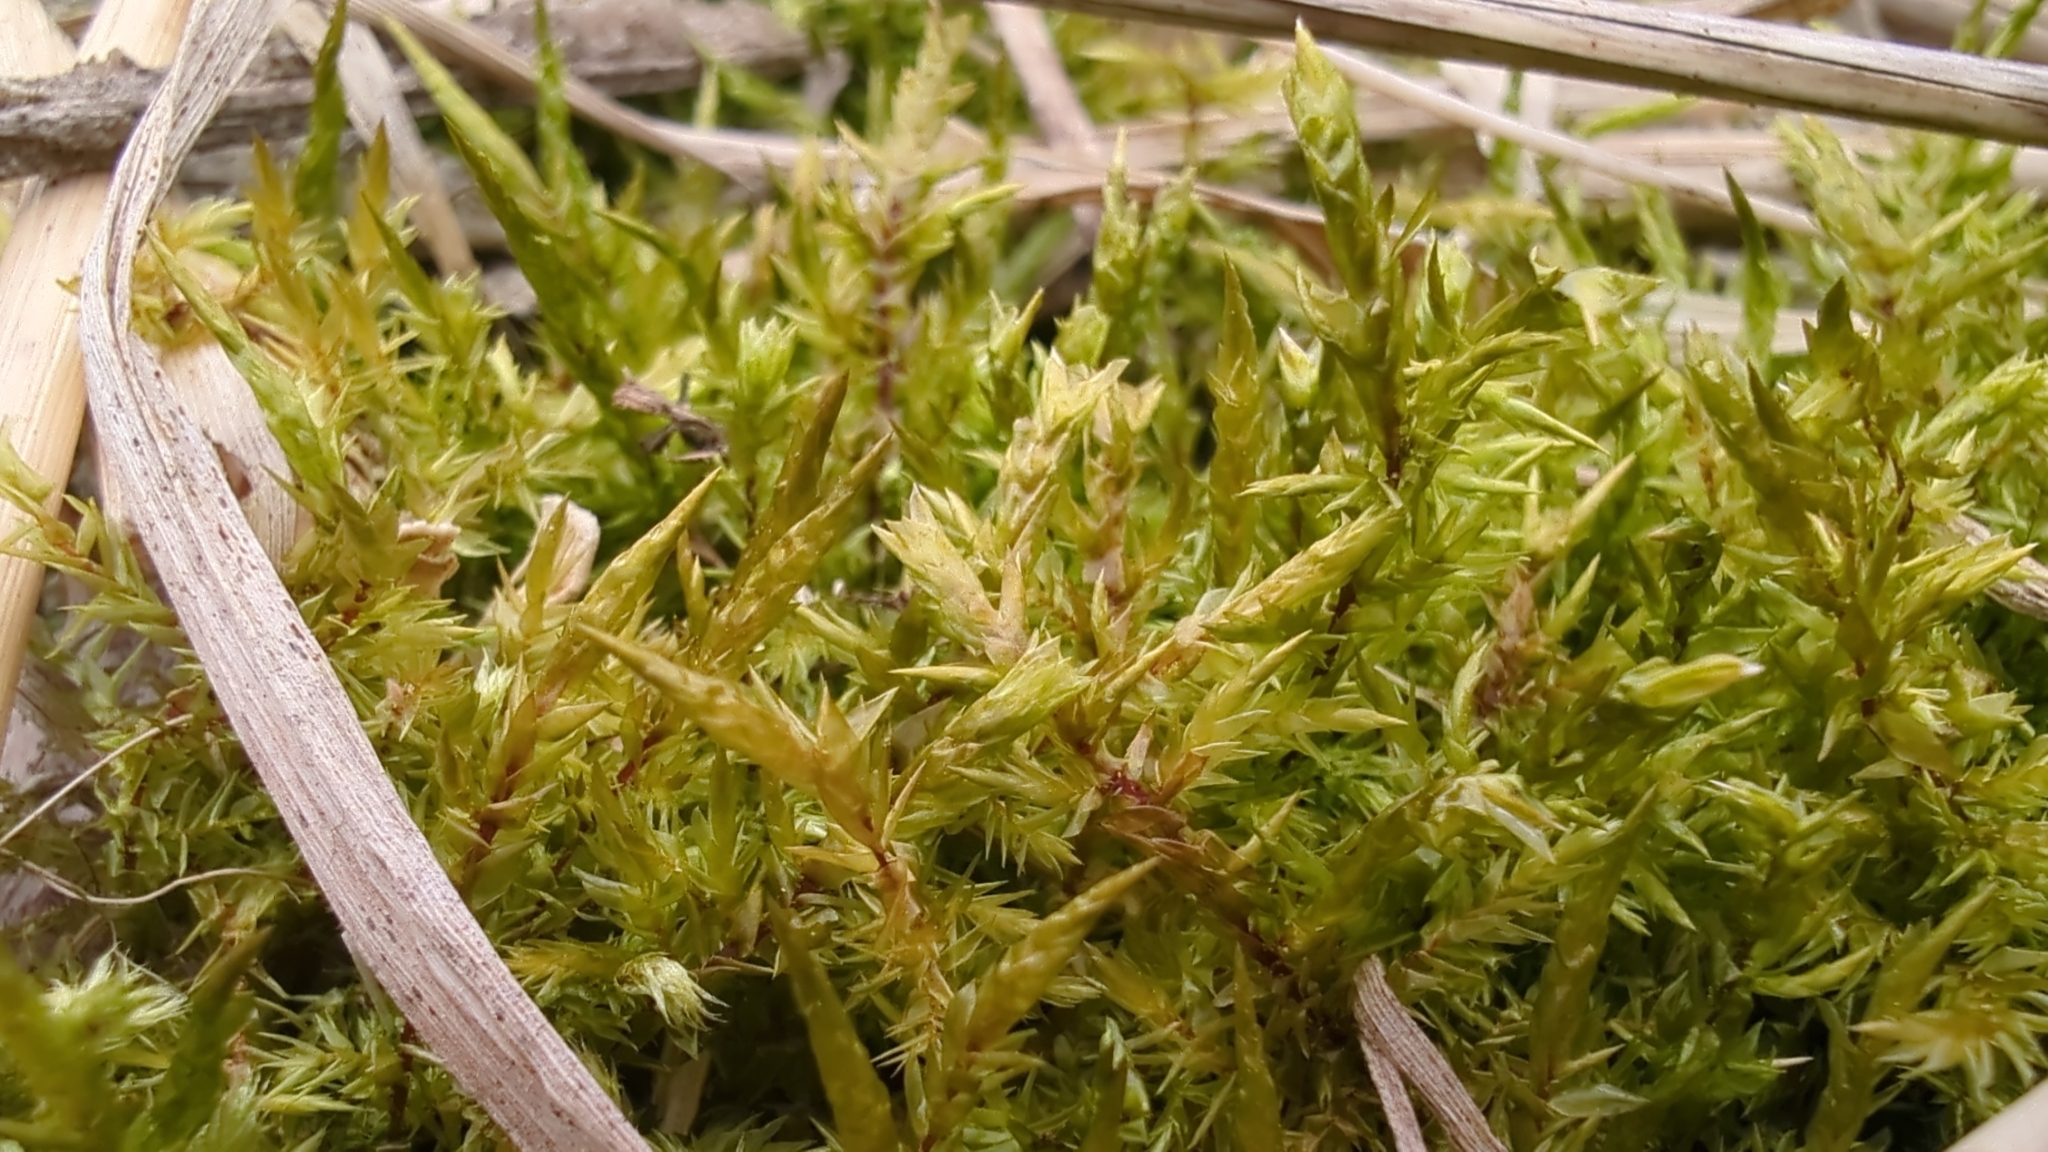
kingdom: Plantae
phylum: Bryophyta
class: Bryopsida
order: Hypnales
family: Pylaisiaceae
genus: Calliergonella
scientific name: Calliergonella cuspidata
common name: Common large wetland moss
